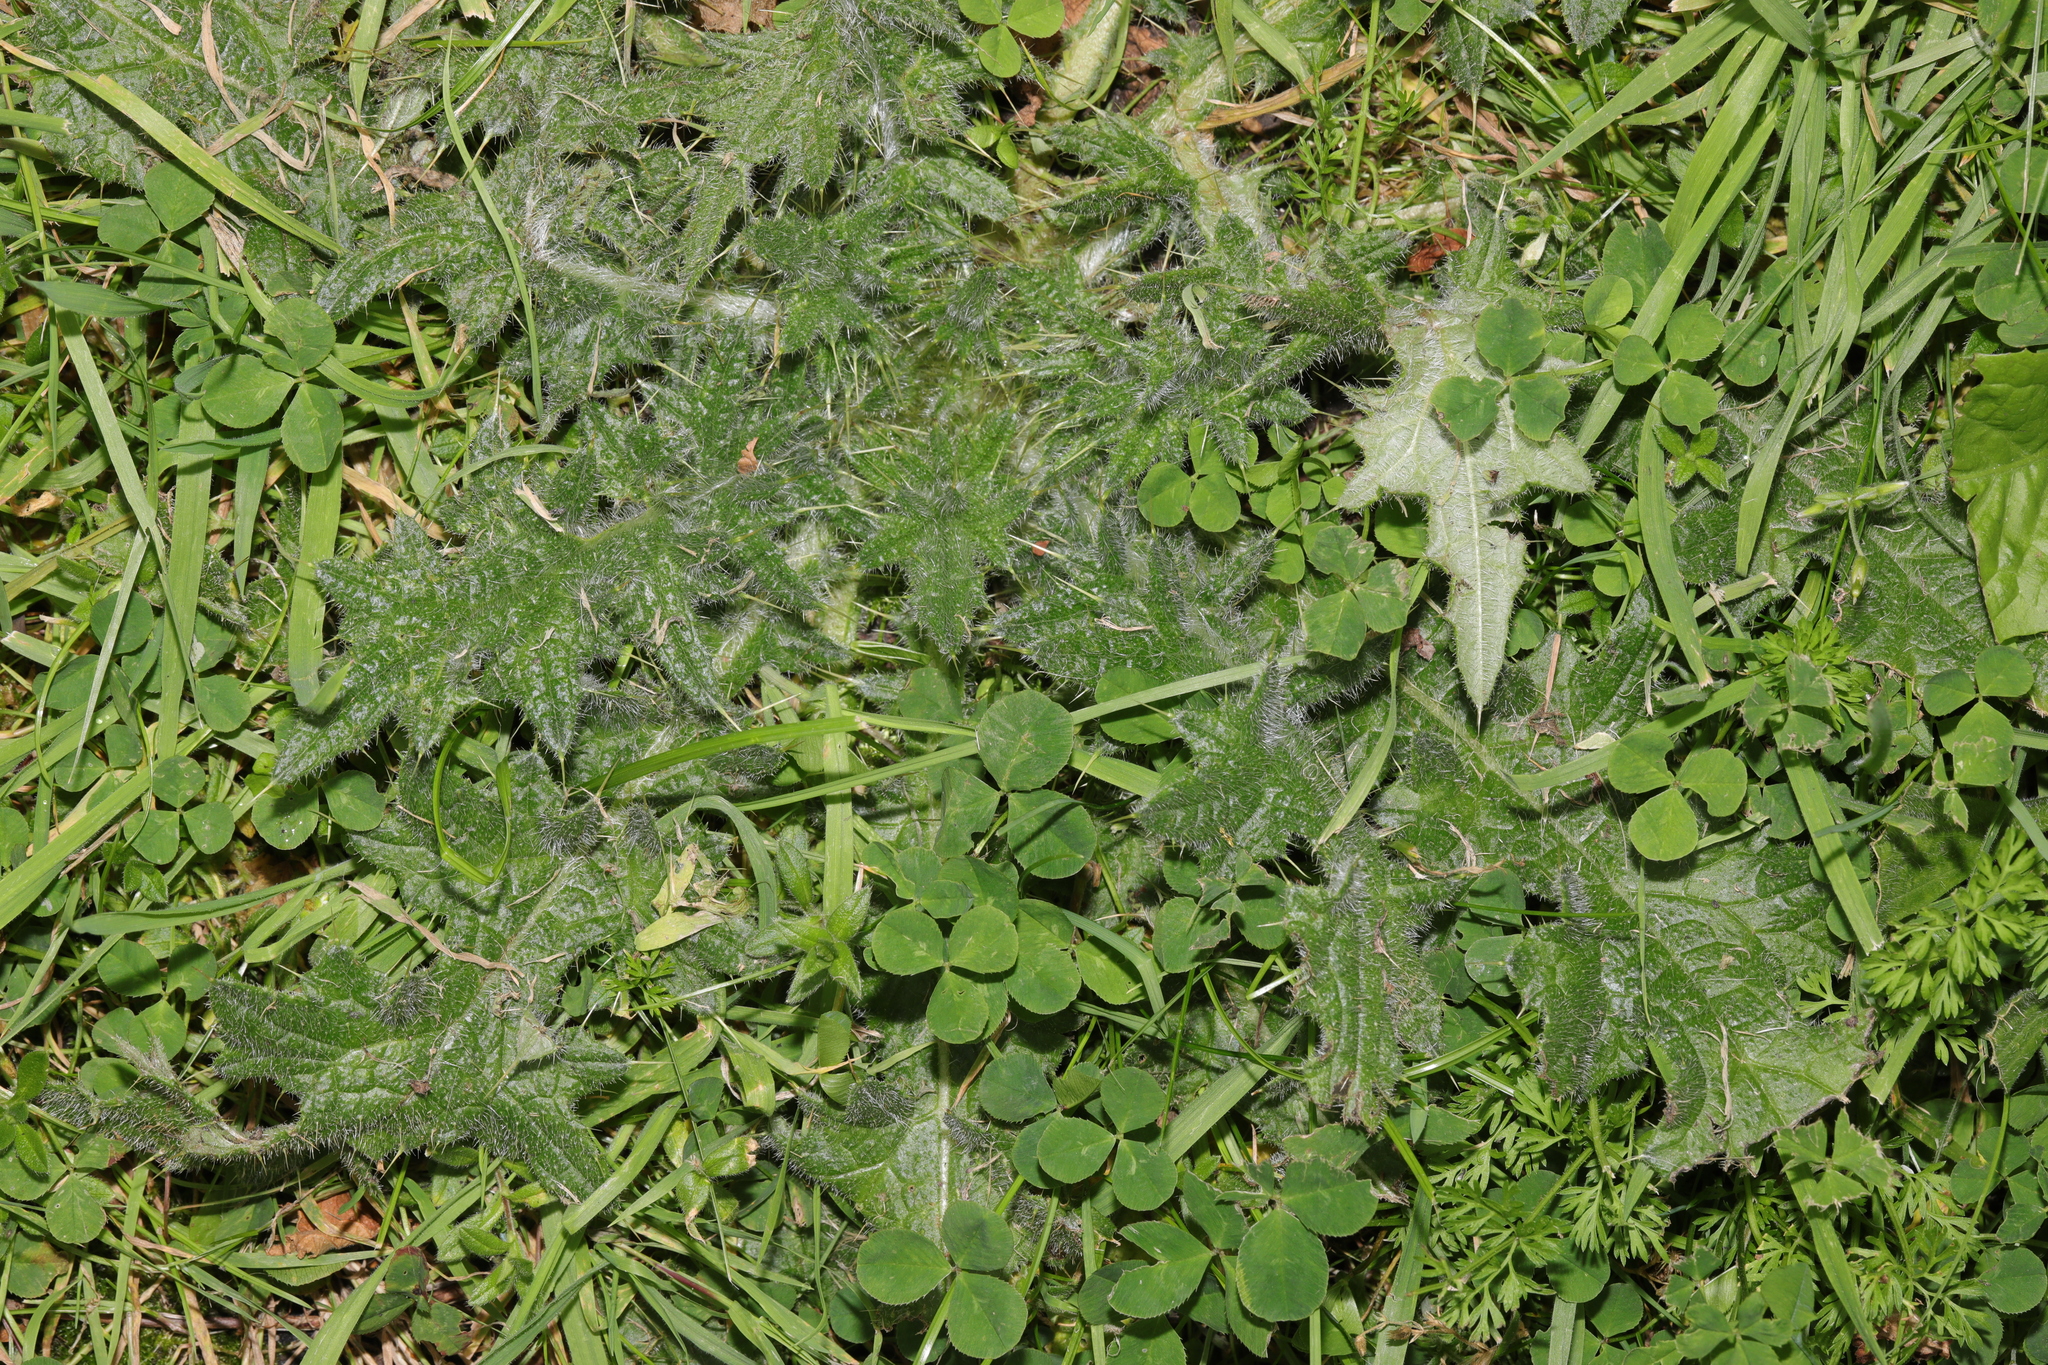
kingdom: Plantae
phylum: Tracheophyta
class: Magnoliopsida
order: Asterales
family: Asteraceae
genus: Cirsium
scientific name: Cirsium vulgare
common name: Bull thistle
